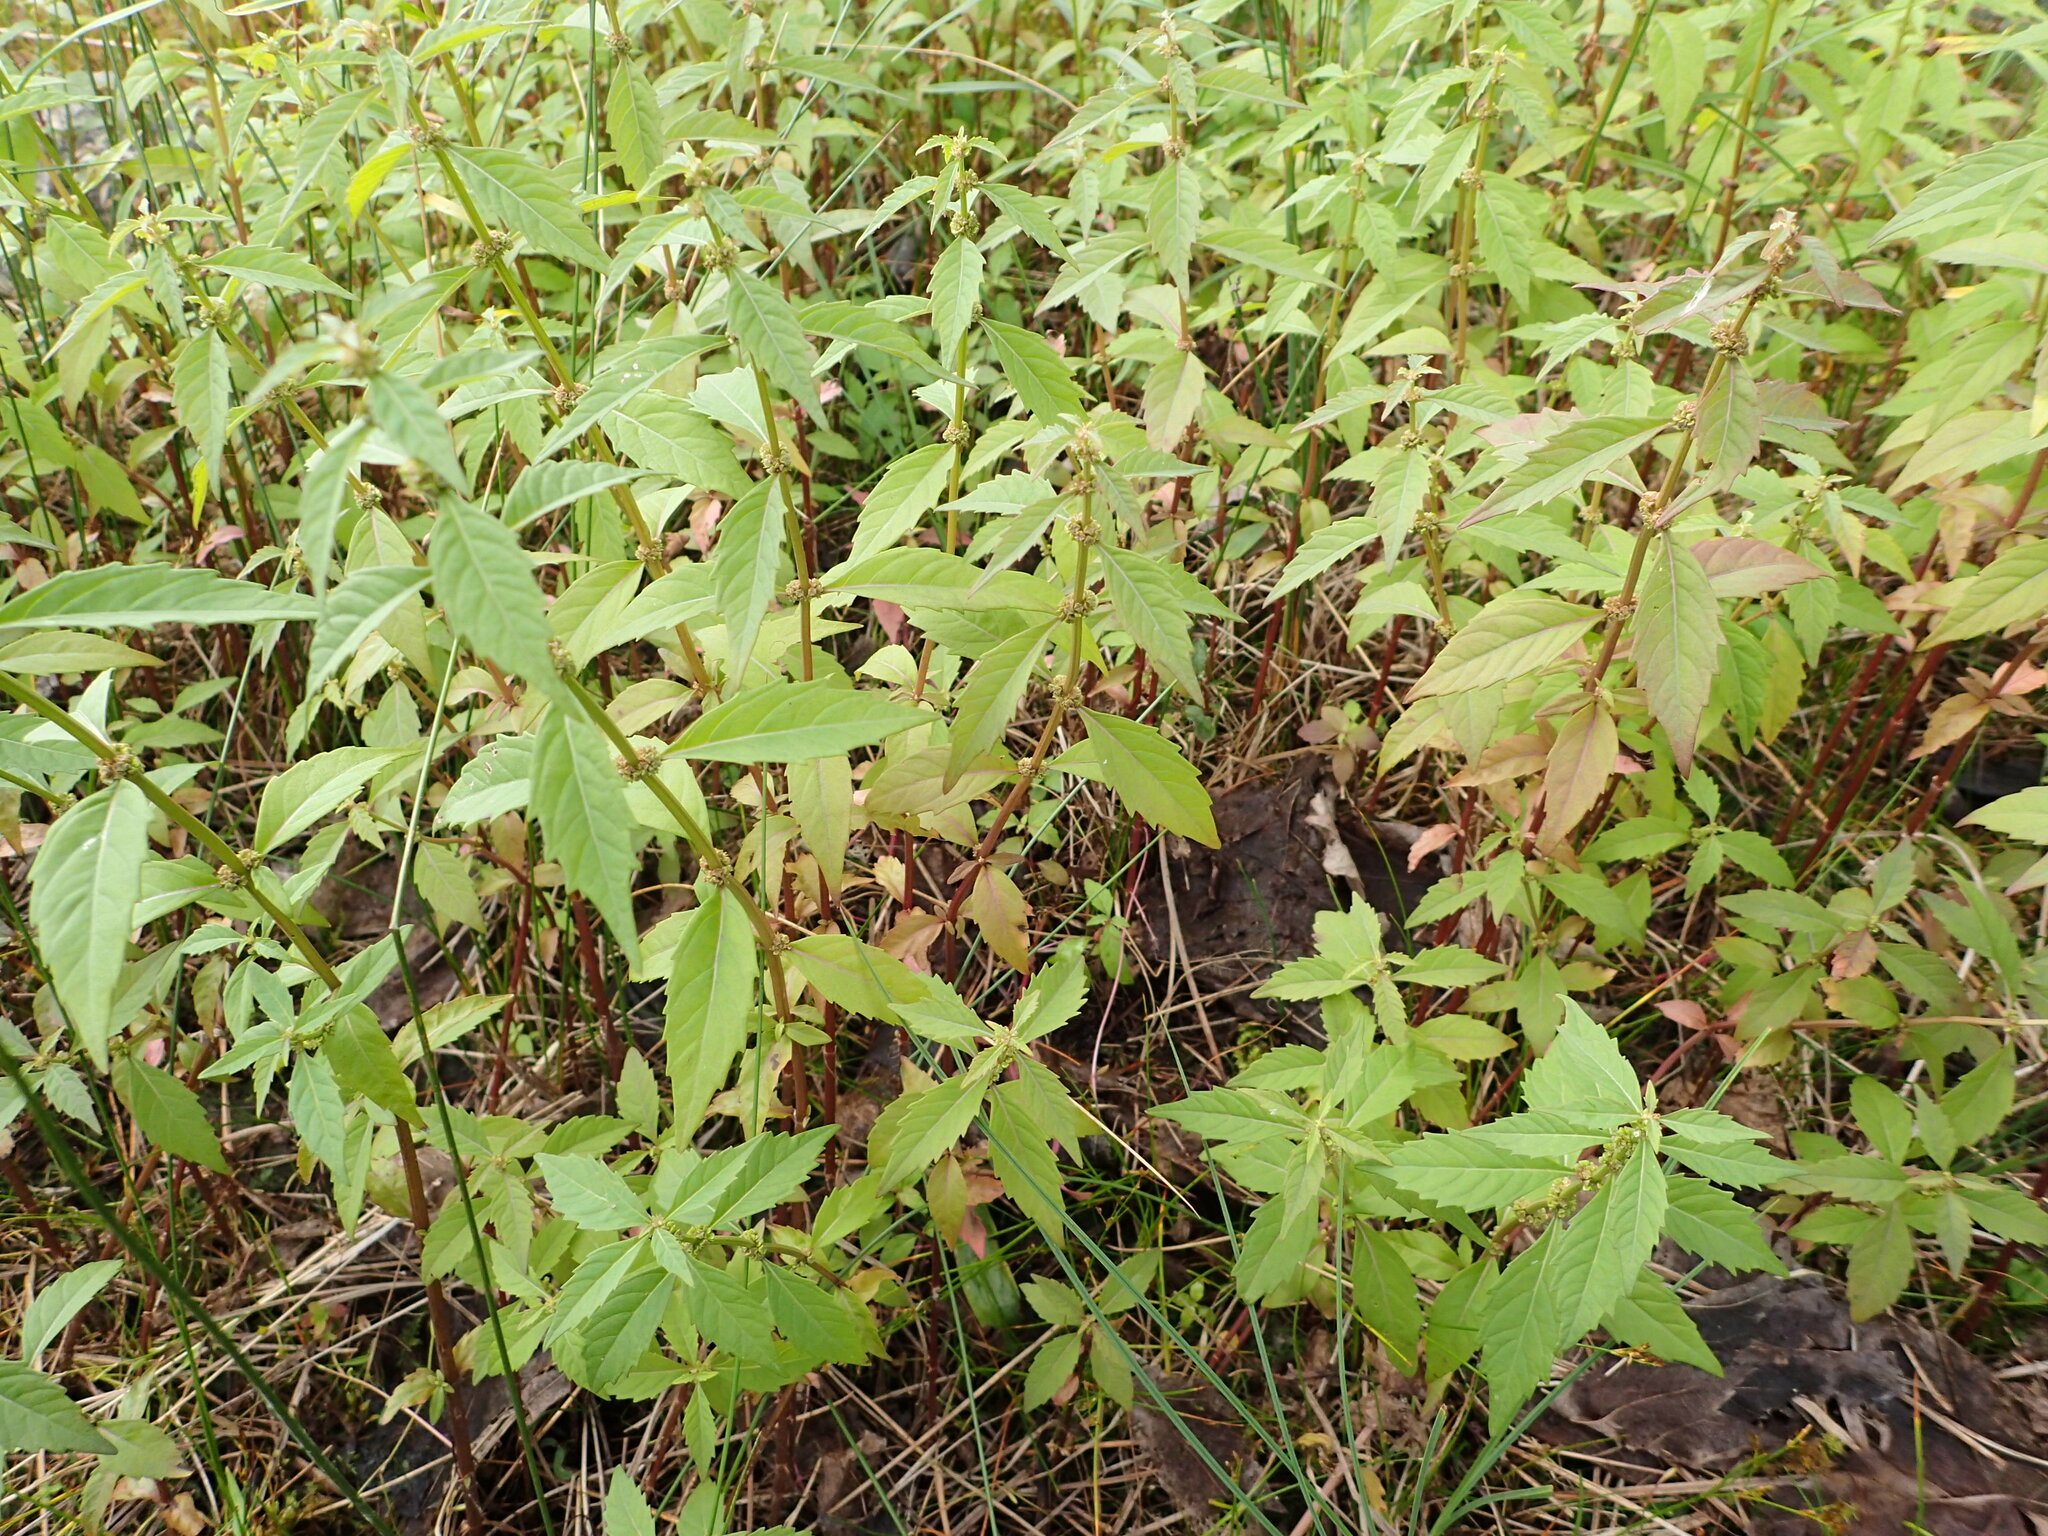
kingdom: Plantae
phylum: Tracheophyta
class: Magnoliopsida
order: Lamiales
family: Lamiaceae
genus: Lycopus
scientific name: Lycopus uniflorus
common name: Northern bugleweed
